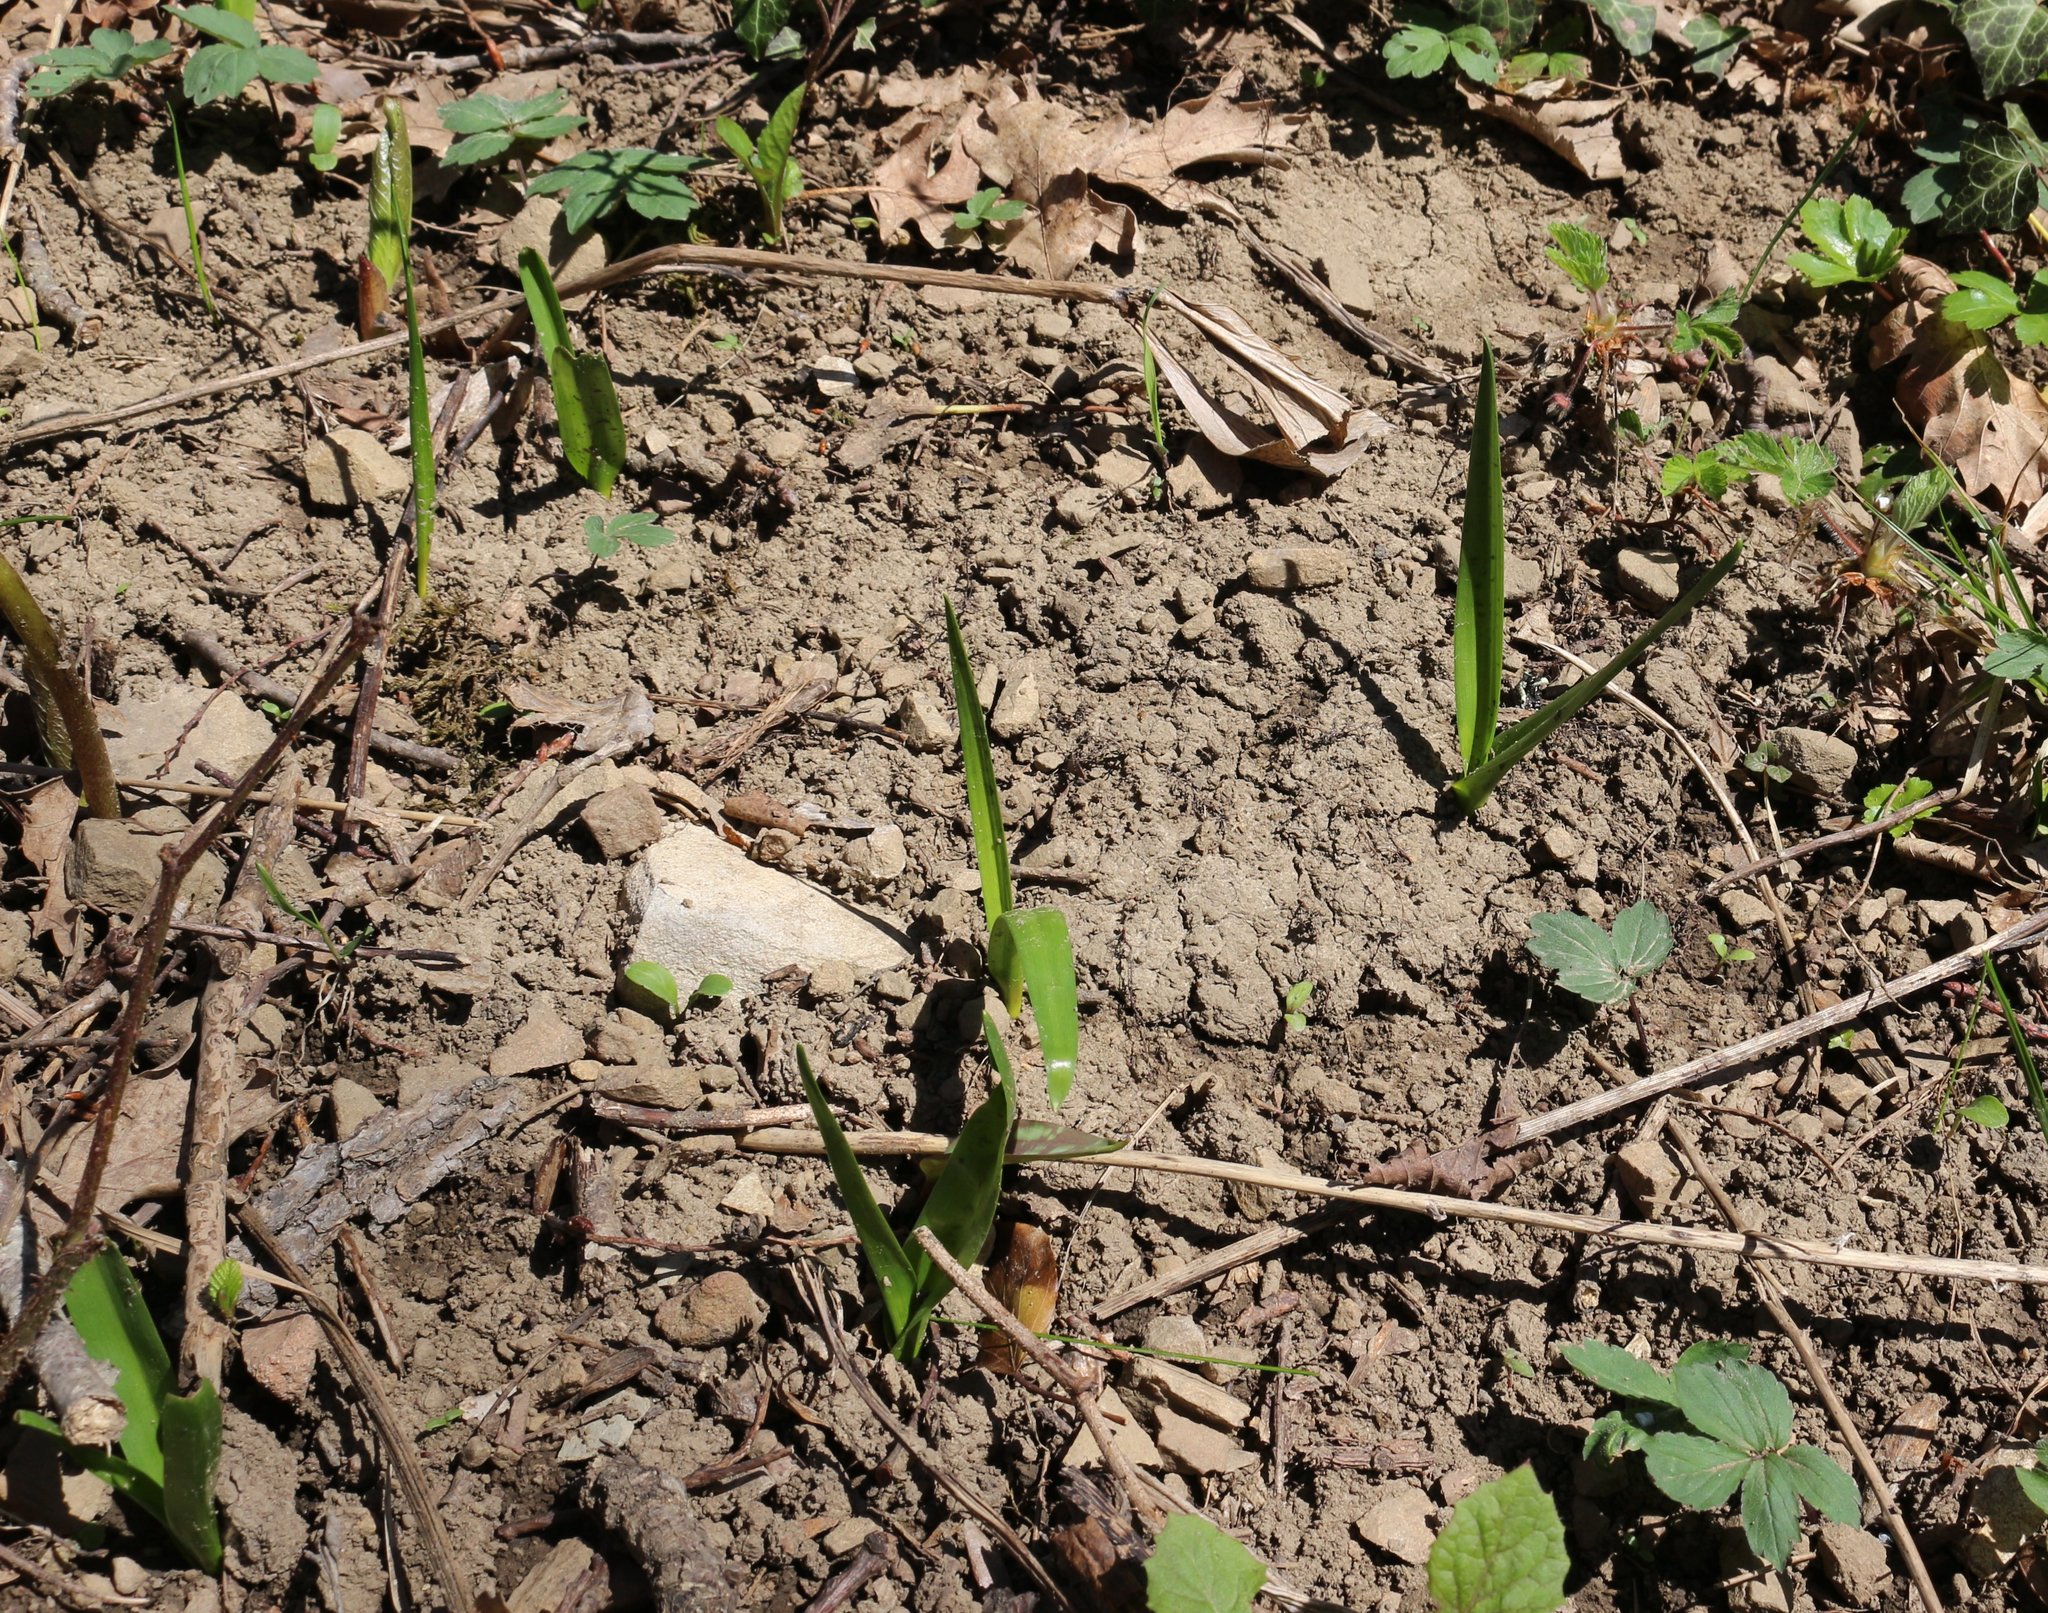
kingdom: Plantae
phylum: Tracheophyta
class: Liliopsida
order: Liliales
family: Colchicaceae
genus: Colchicum
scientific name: Colchicum umbrosum
